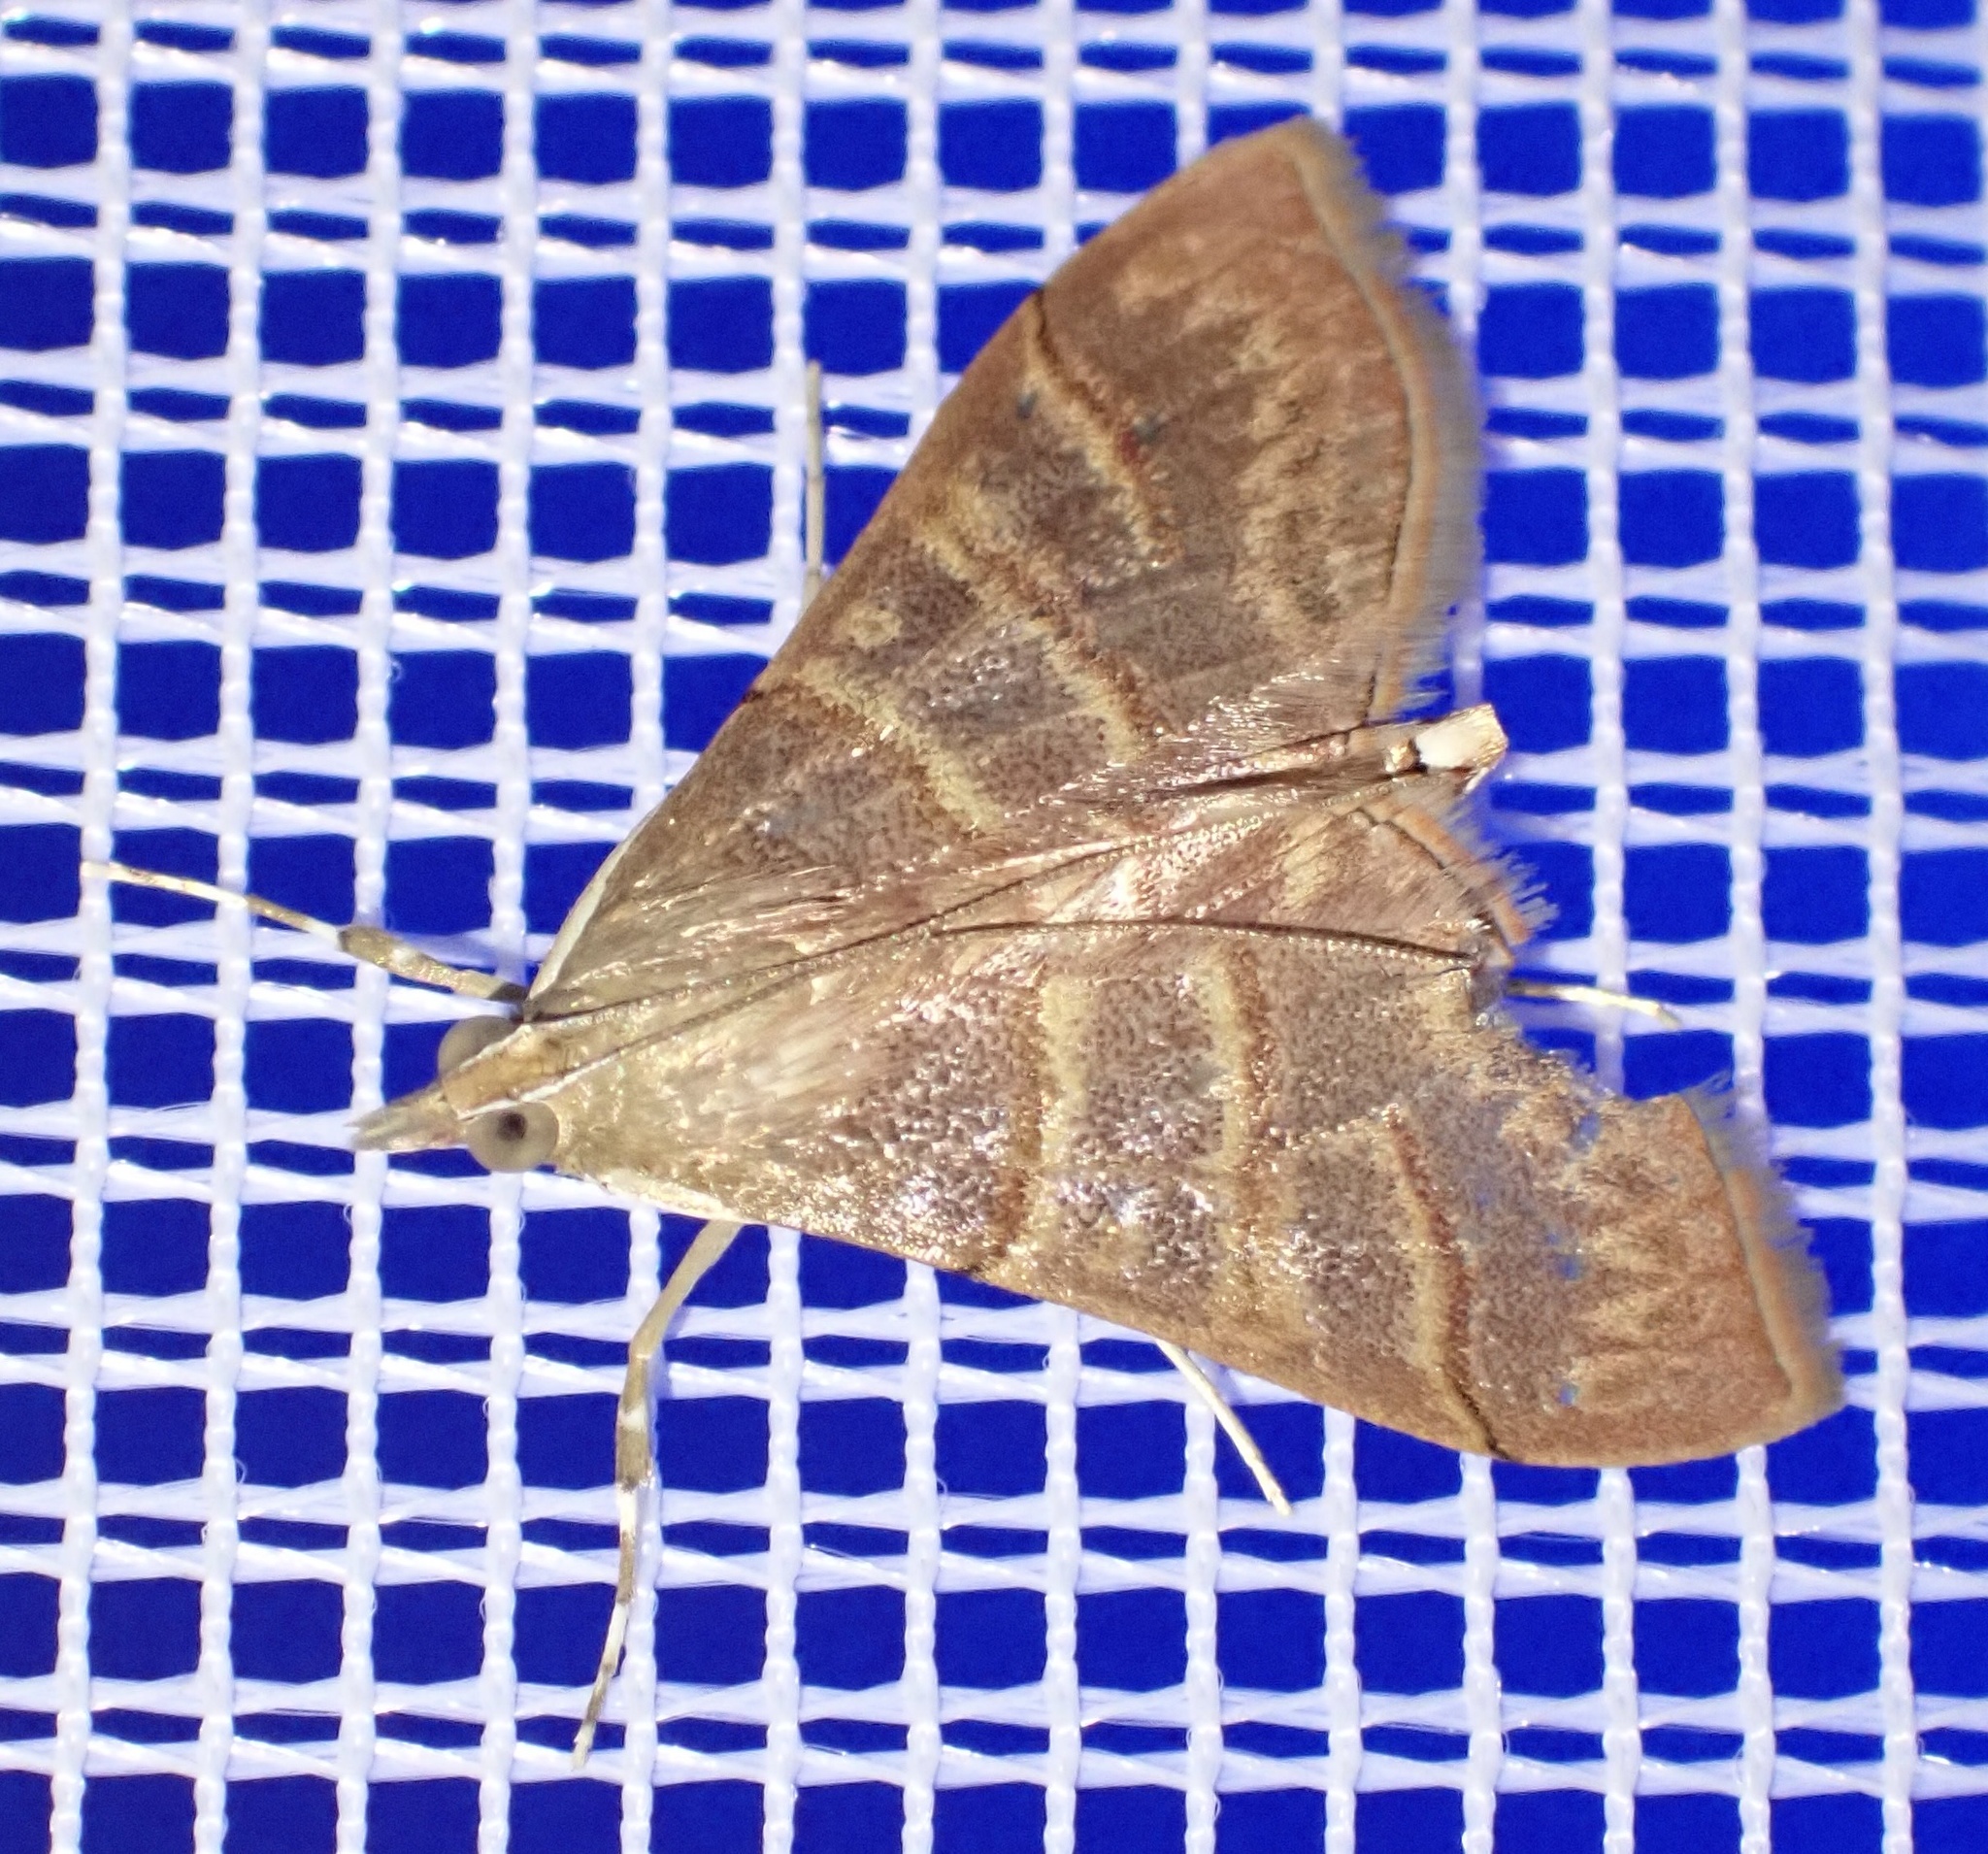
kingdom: Animalia
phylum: Arthropoda
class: Insecta
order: Lepidoptera
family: Crambidae
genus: Pagyda
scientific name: Pagyda salvalis
